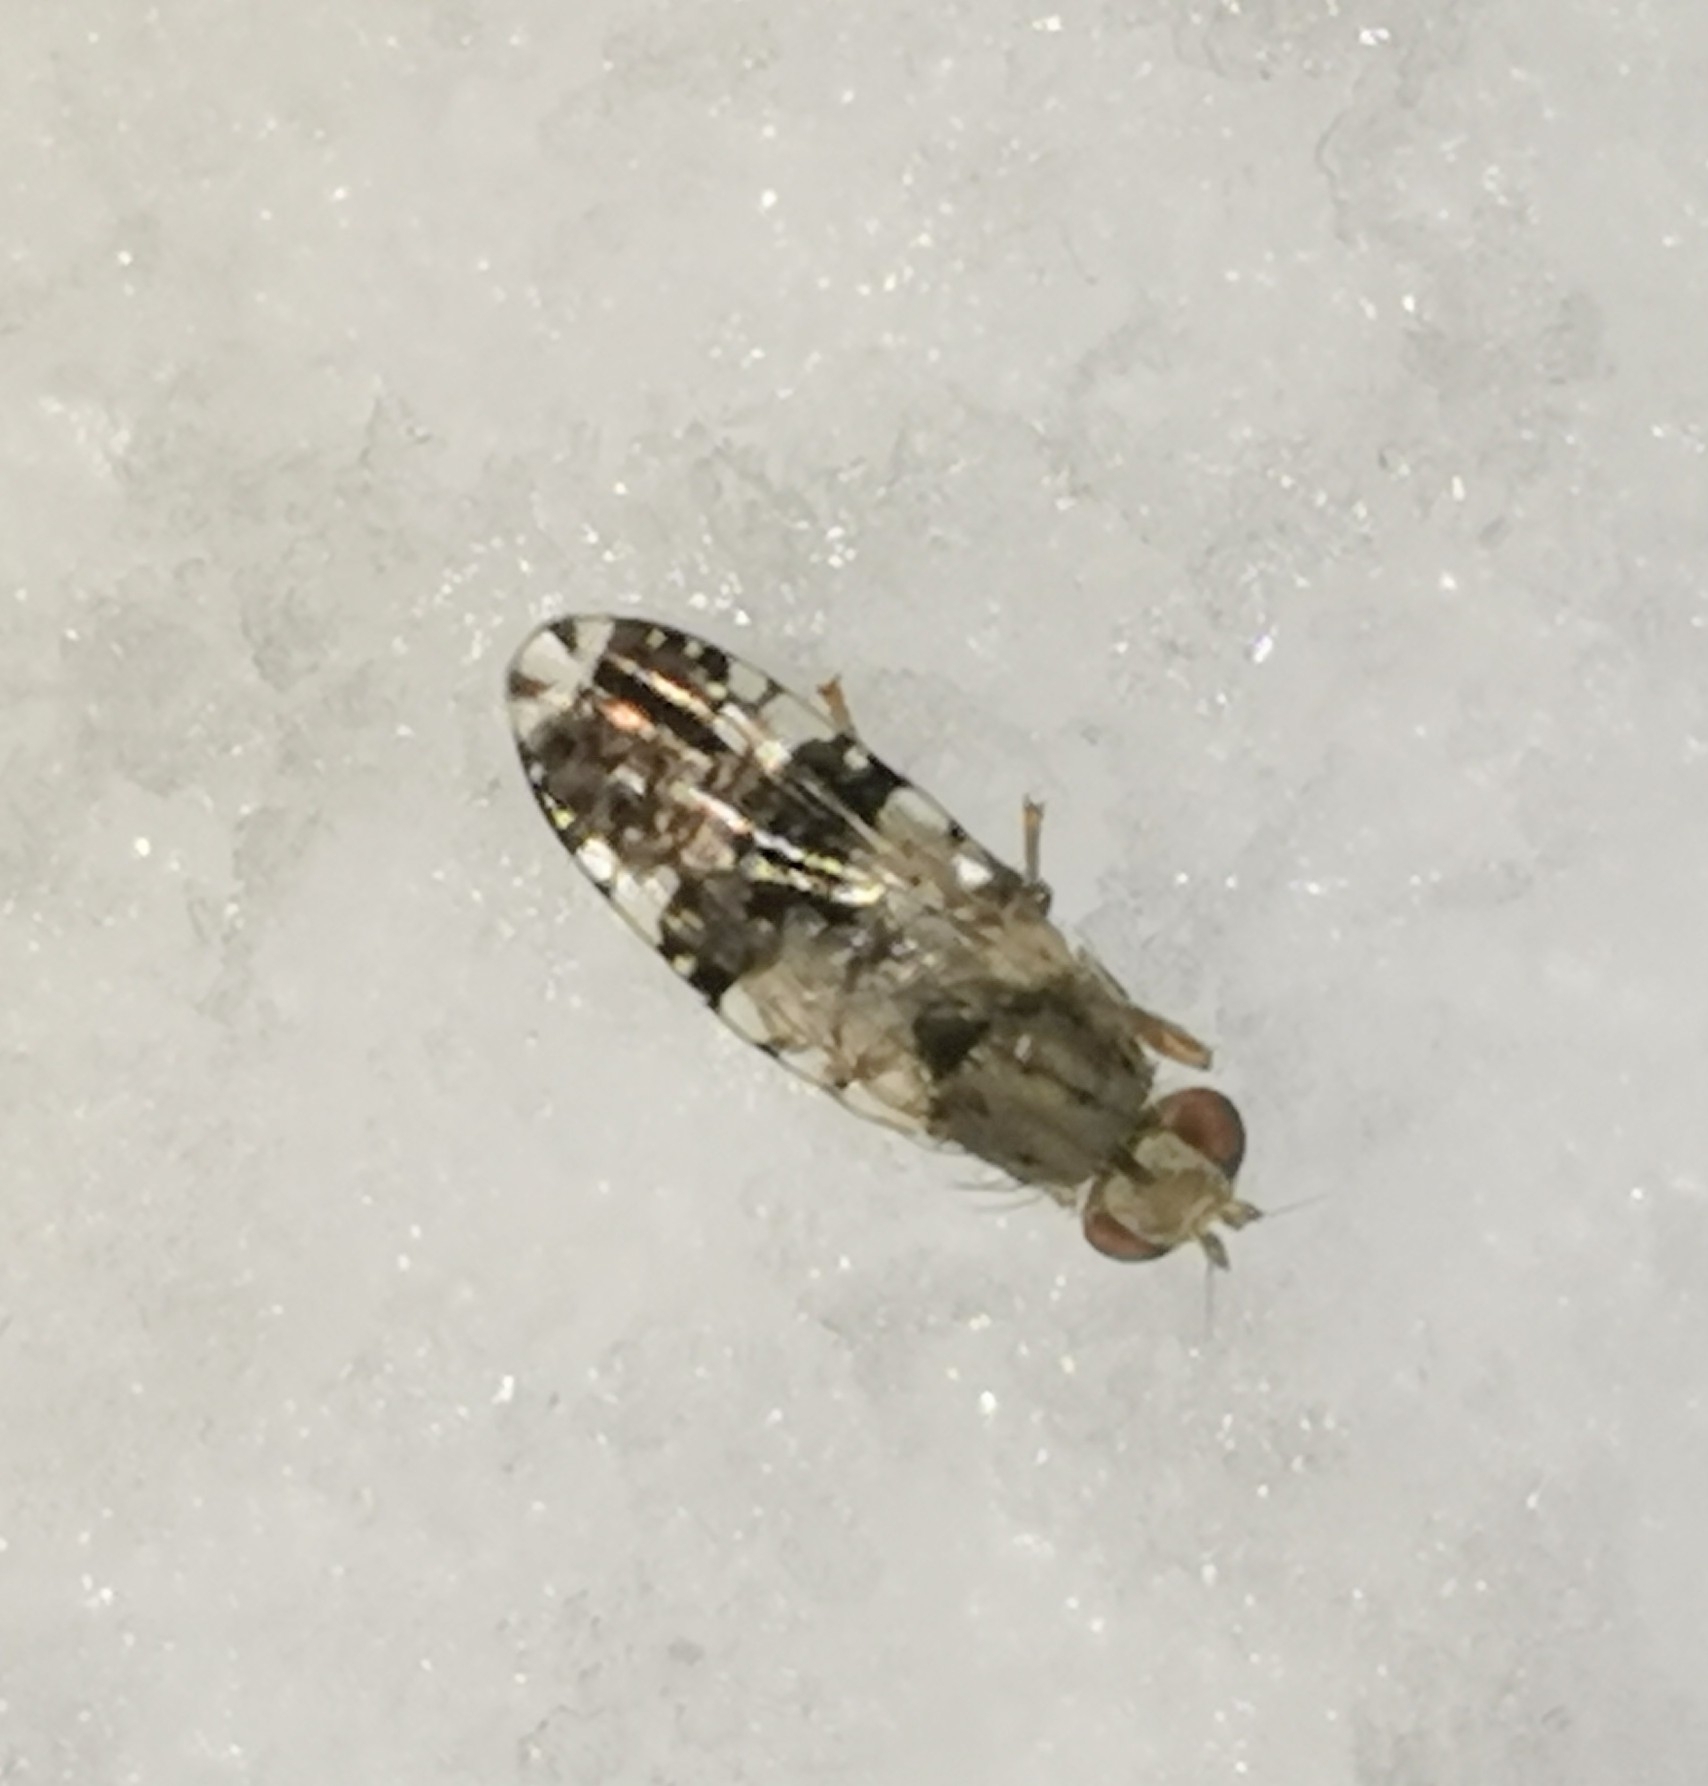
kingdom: Animalia
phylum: Arthropoda
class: Insecta
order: Diptera
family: Tephritidae
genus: Tephritis
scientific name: Tephritis dilacerata
